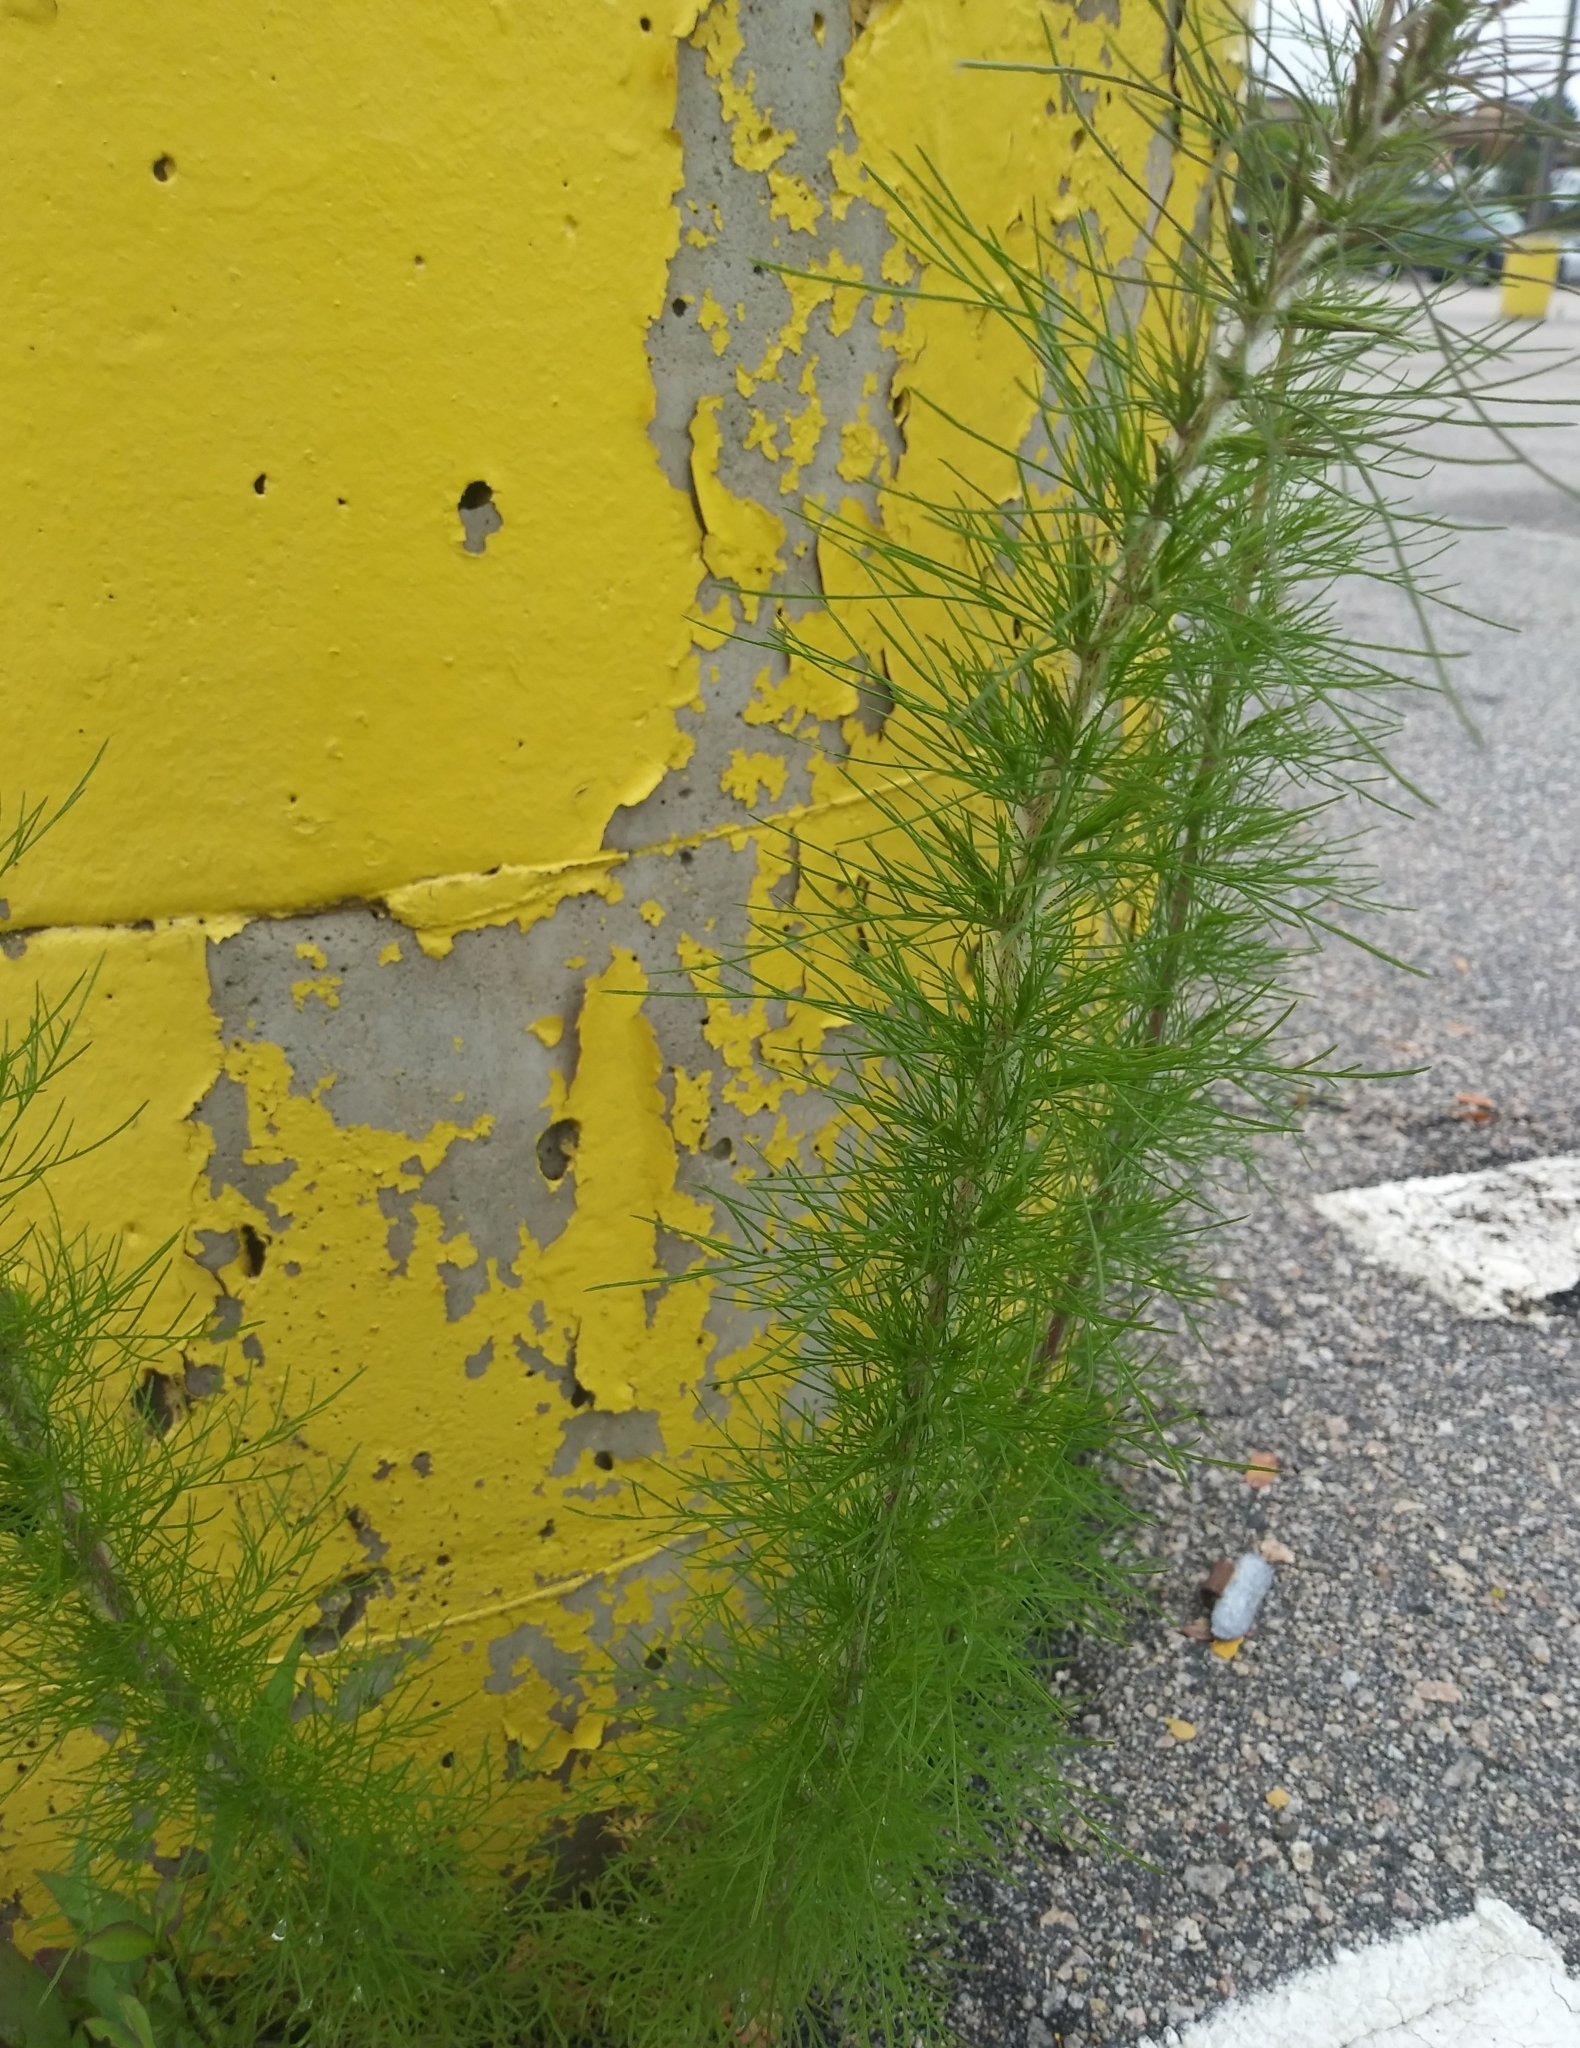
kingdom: Plantae
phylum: Tracheophyta
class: Magnoliopsida
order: Asterales
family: Asteraceae
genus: Eupatorium
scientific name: Eupatorium capillifolium
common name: Dog-fennel
